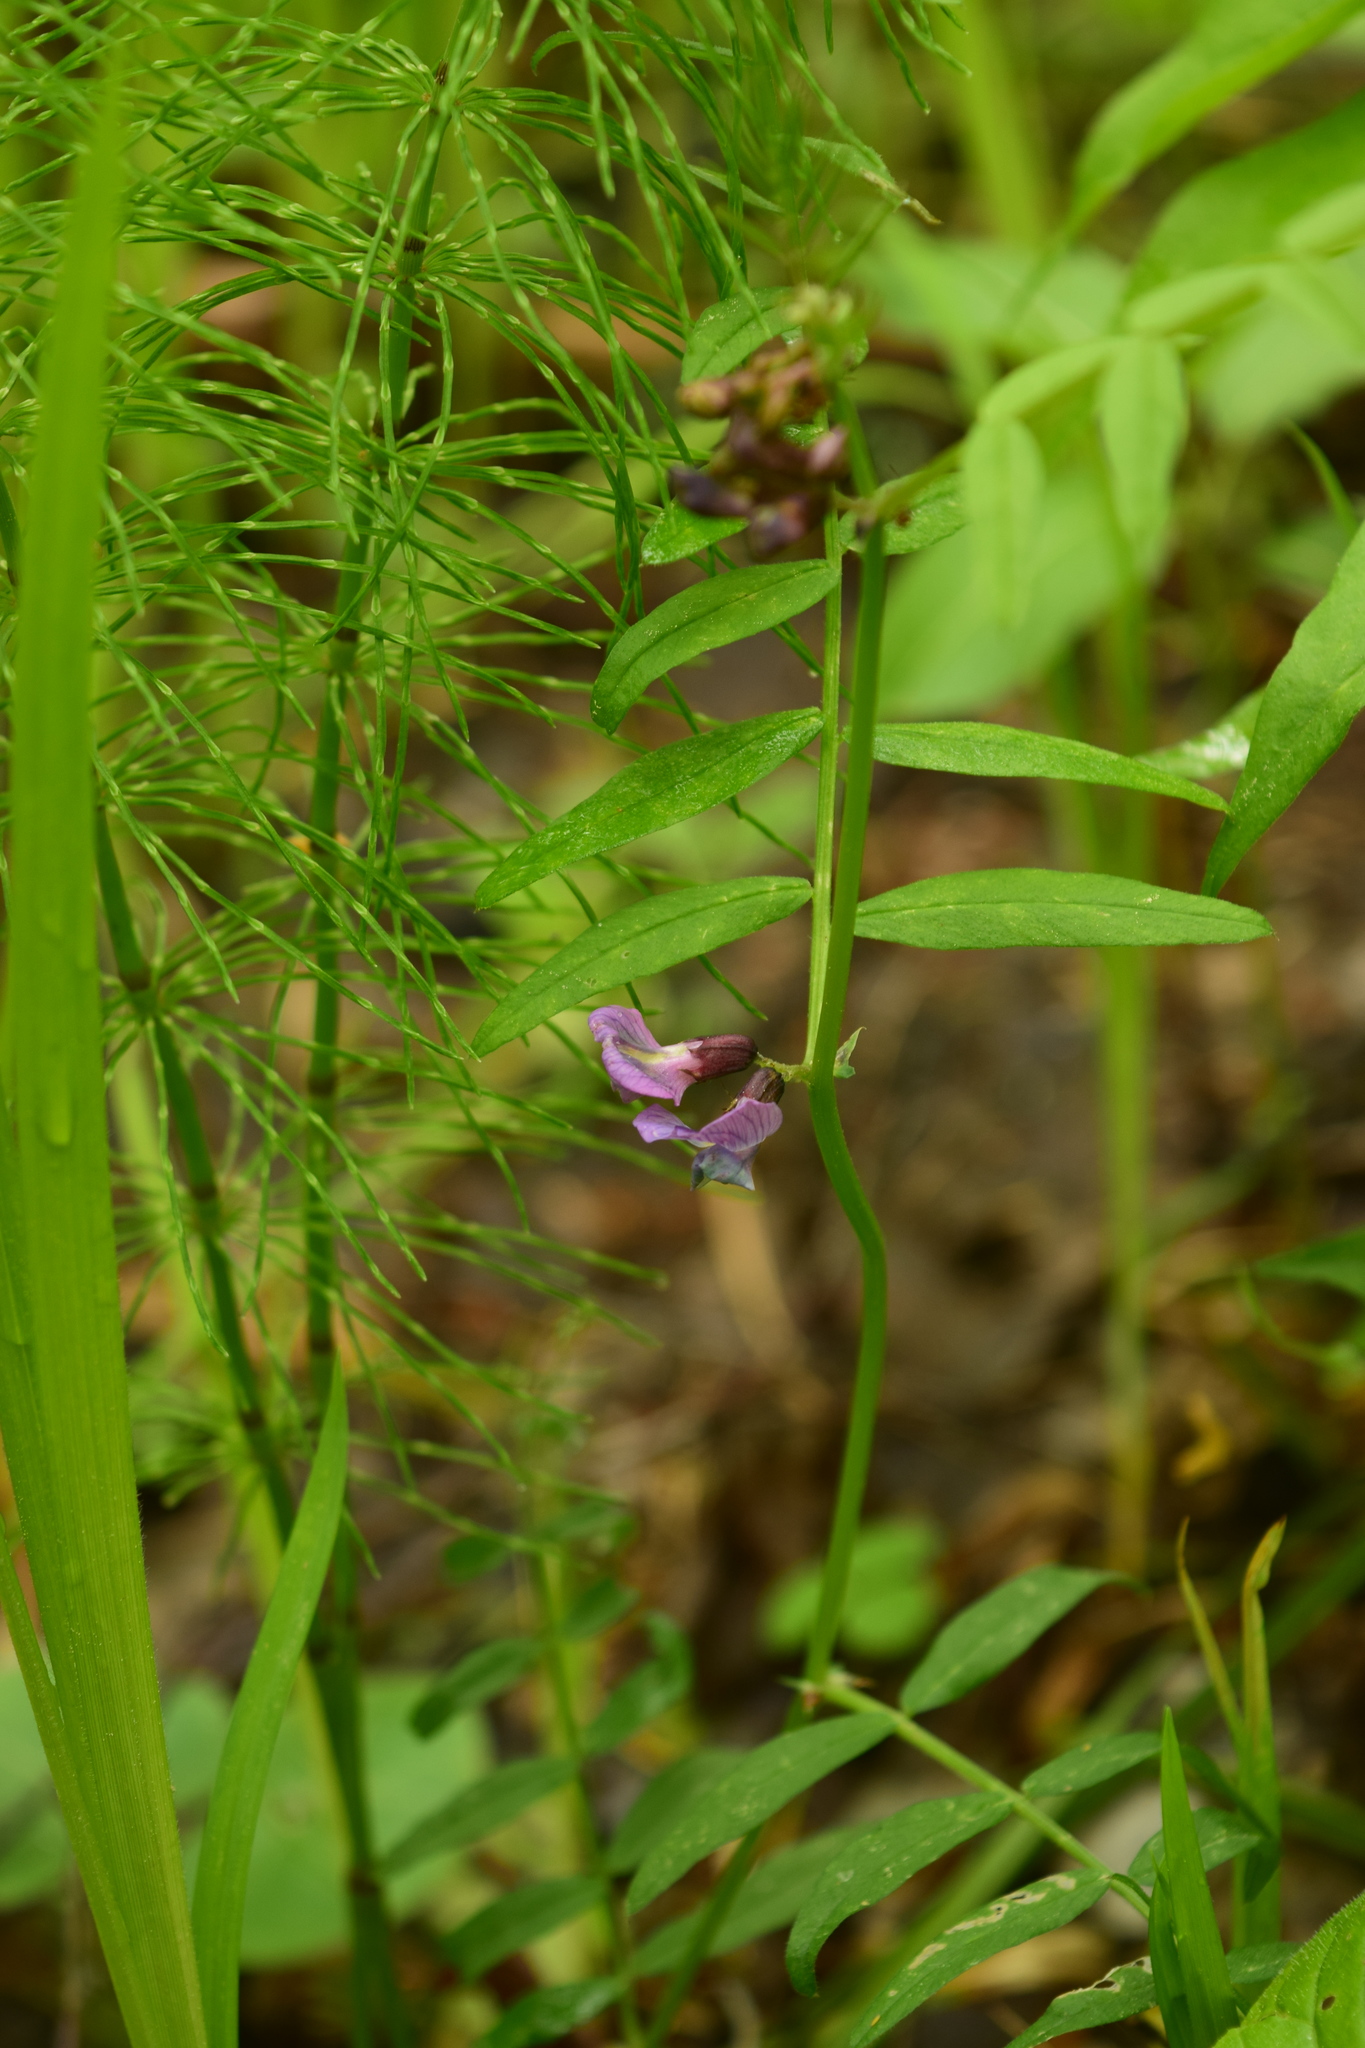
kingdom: Plantae
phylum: Tracheophyta
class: Magnoliopsida
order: Fabales
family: Fabaceae
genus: Vicia
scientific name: Vicia sepium
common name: Bush vetch
